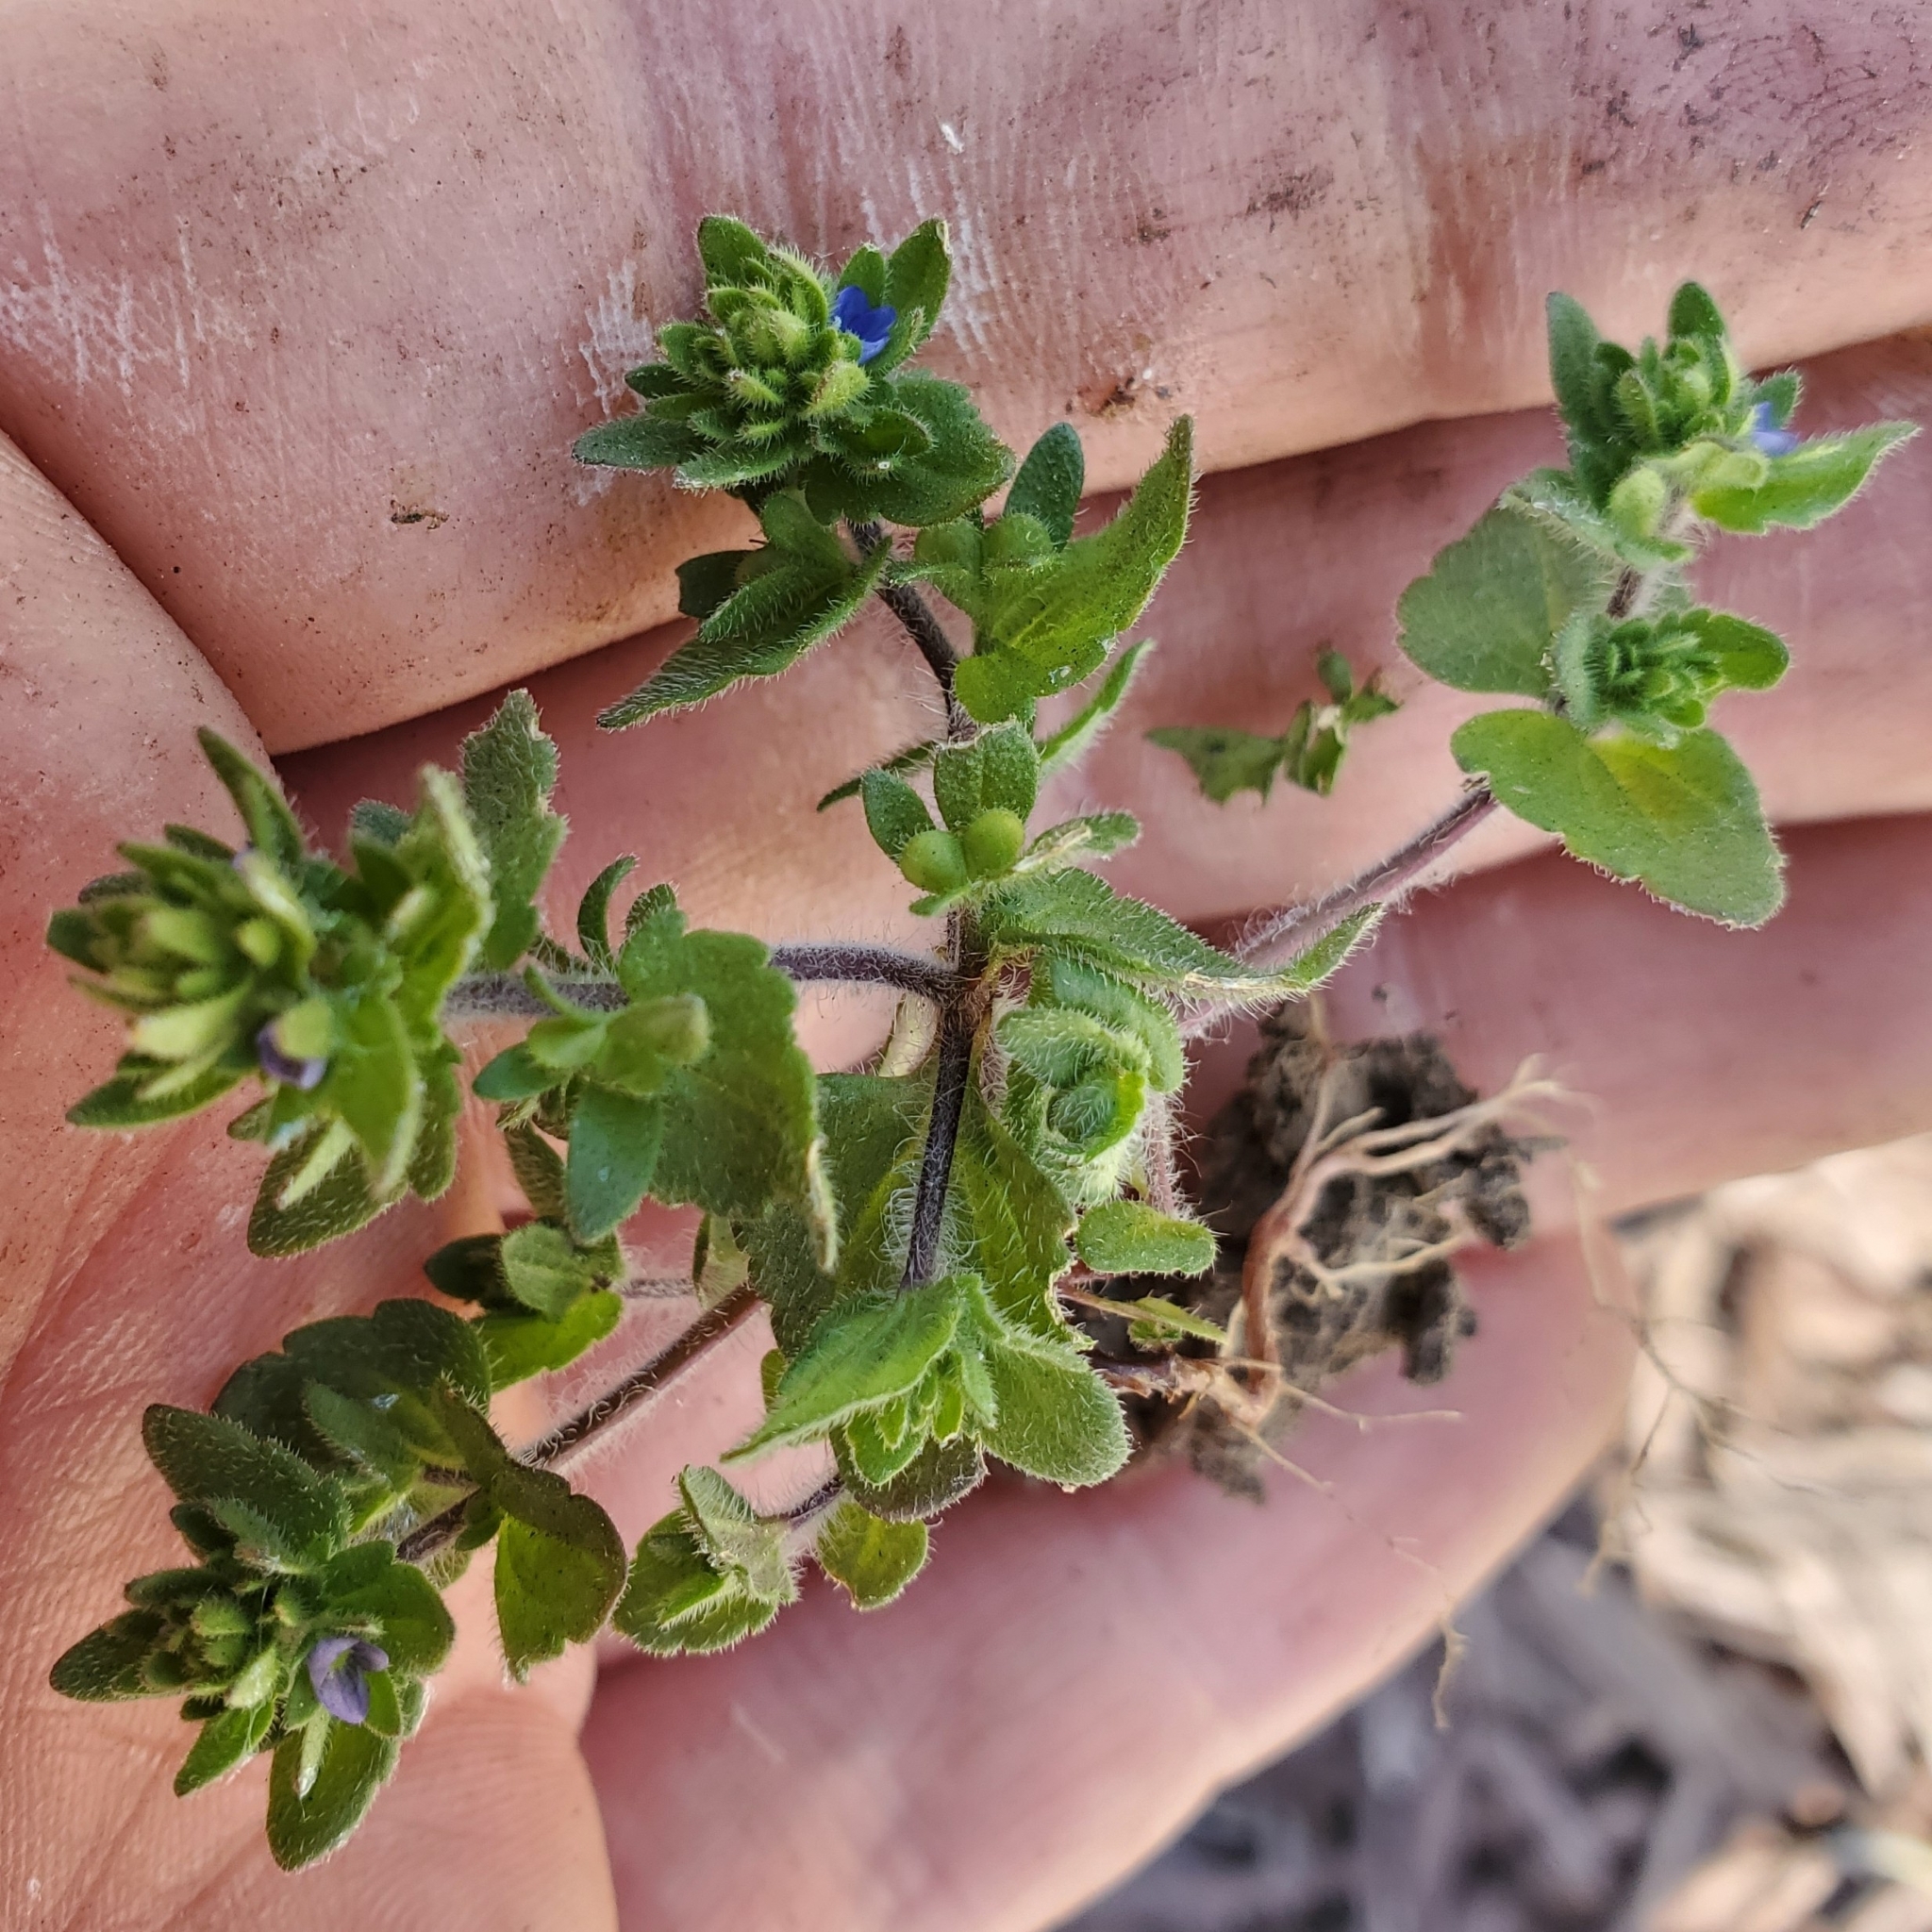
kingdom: Plantae
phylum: Tracheophyta
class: Magnoliopsida
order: Lamiales
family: Plantaginaceae
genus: Veronica
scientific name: Veronica arvensis
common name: Corn speedwell
